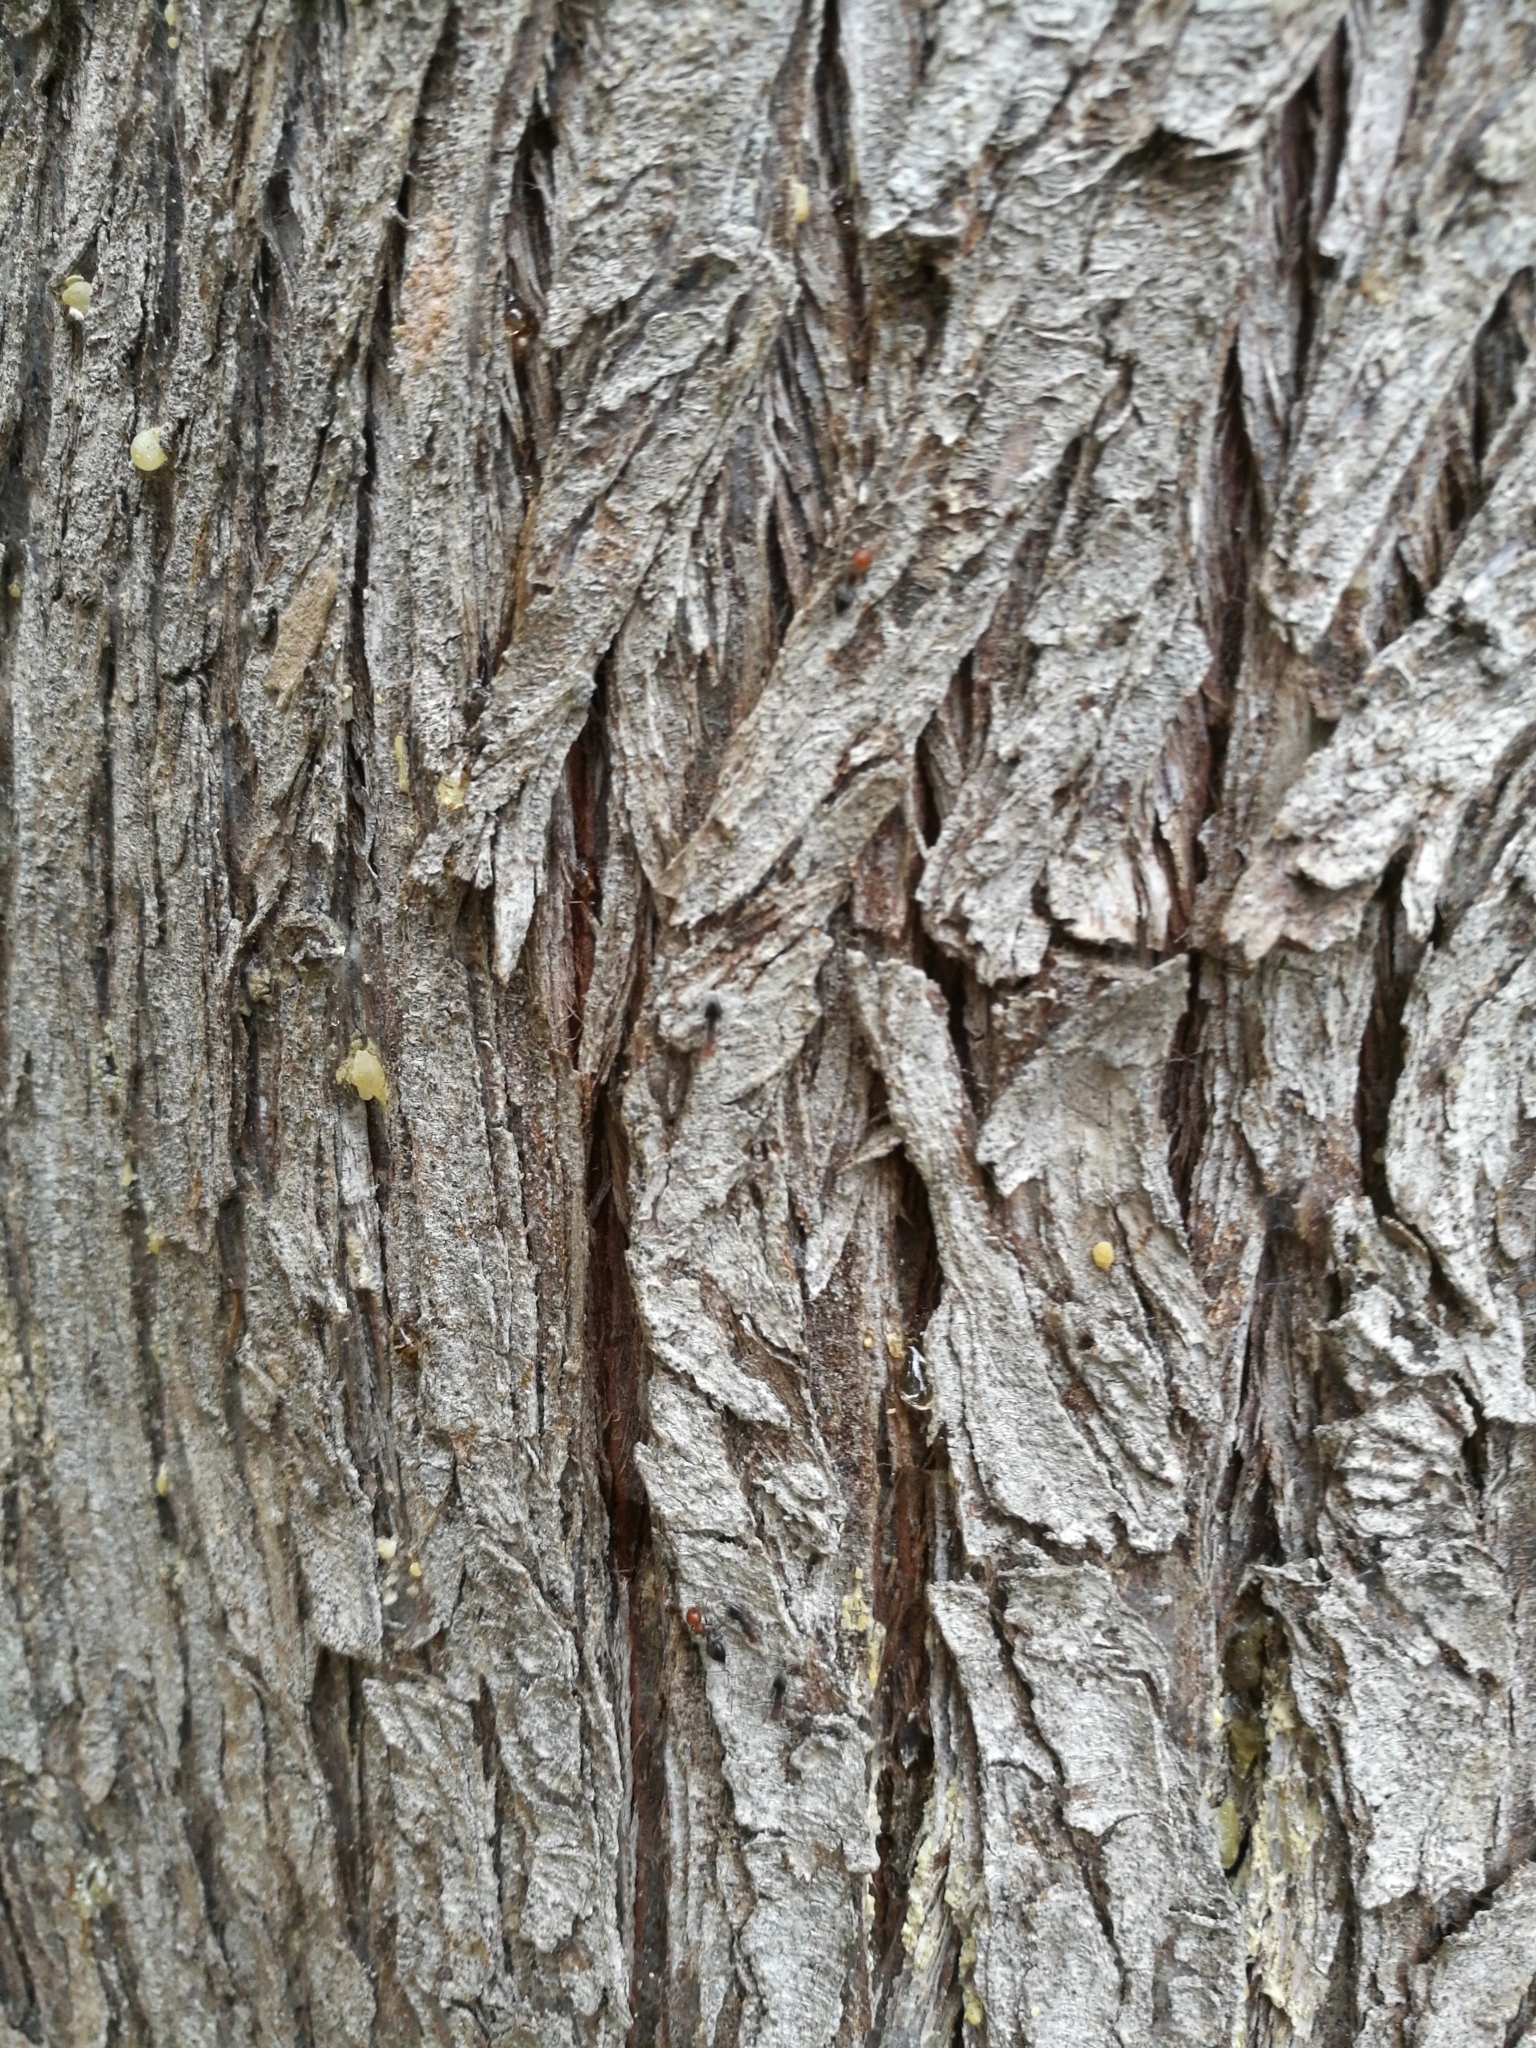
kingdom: Animalia
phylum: Arthropoda
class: Insecta
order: Hymenoptera
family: Formicidae
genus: Crematogaster
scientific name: Crematogaster scutellaris
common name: Fourmi du liège
